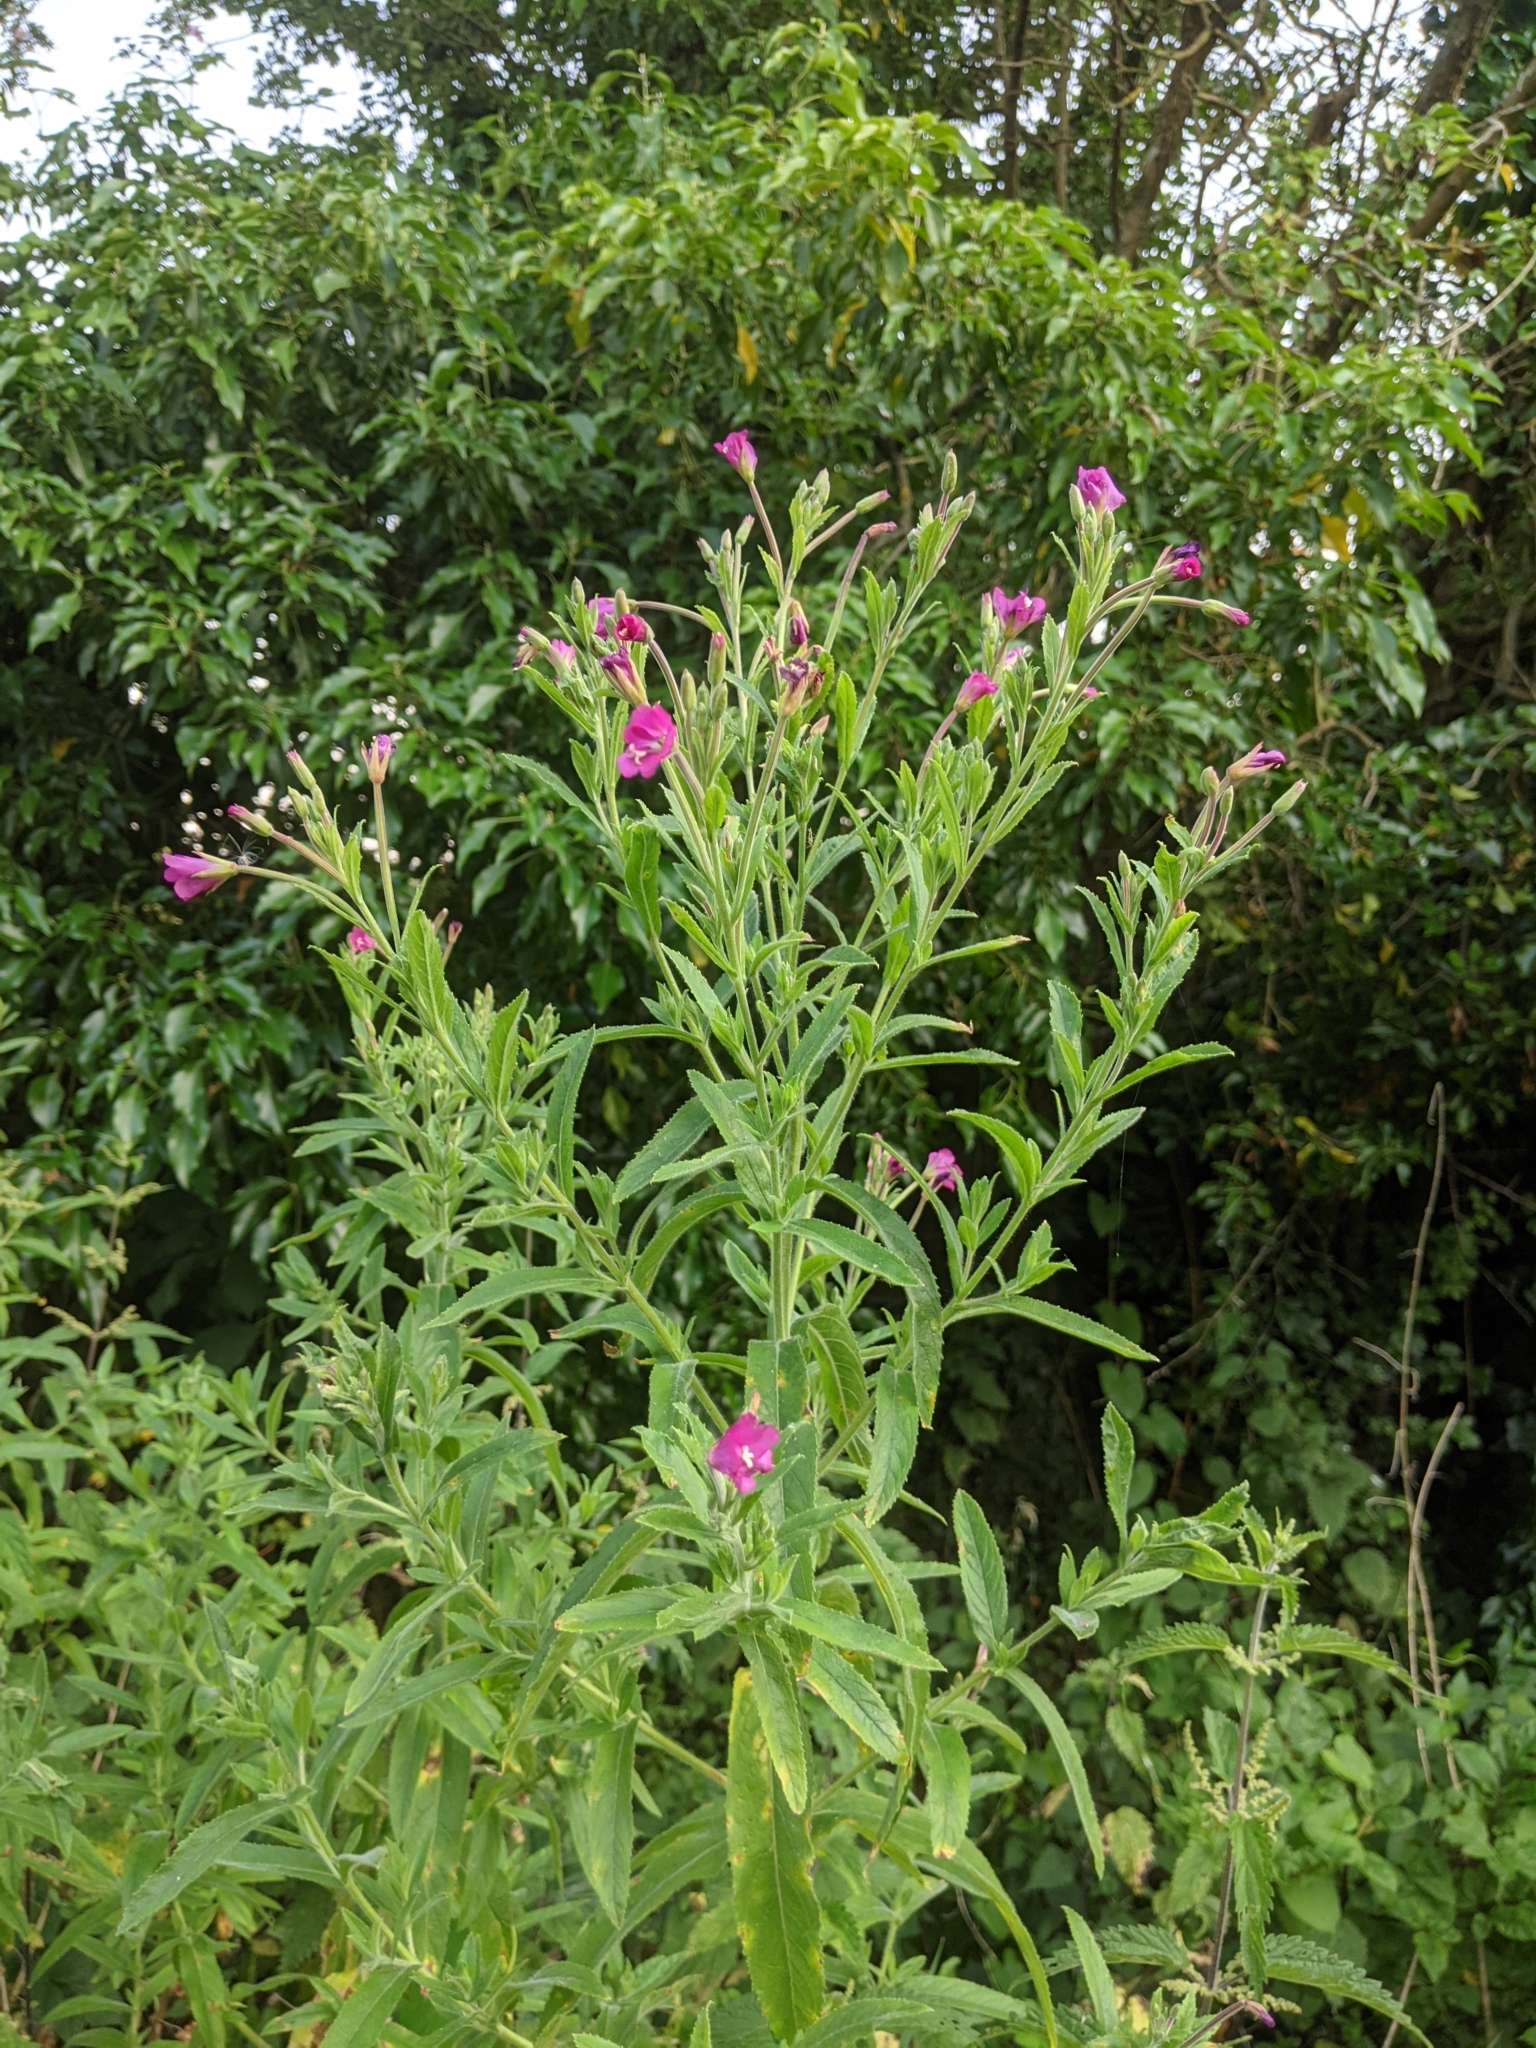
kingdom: Plantae
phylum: Tracheophyta
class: Magnoliopsida
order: Myrtales
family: Onagraceae
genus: Epilobium
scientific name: Epilobium hirsutum
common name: Great willowherb
